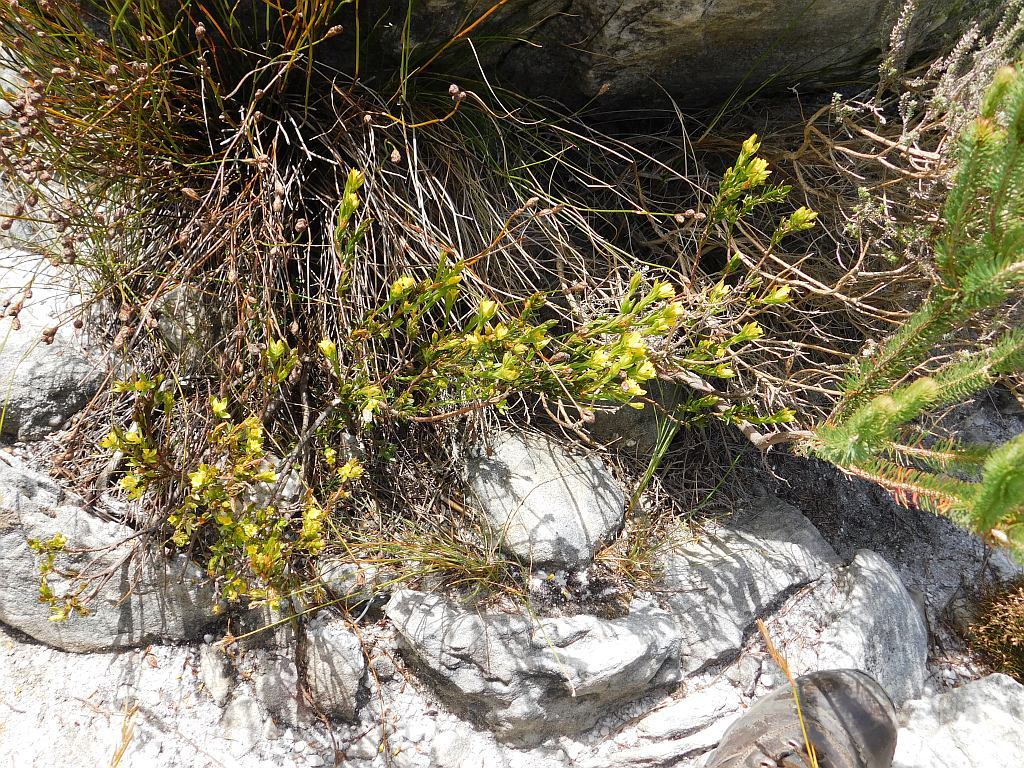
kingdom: Plantae
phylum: Tracheophyta
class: Magnoliopsida
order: Malvales
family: Thymelaeaceae
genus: Gnidia
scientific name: Gnidia juniperifolia
